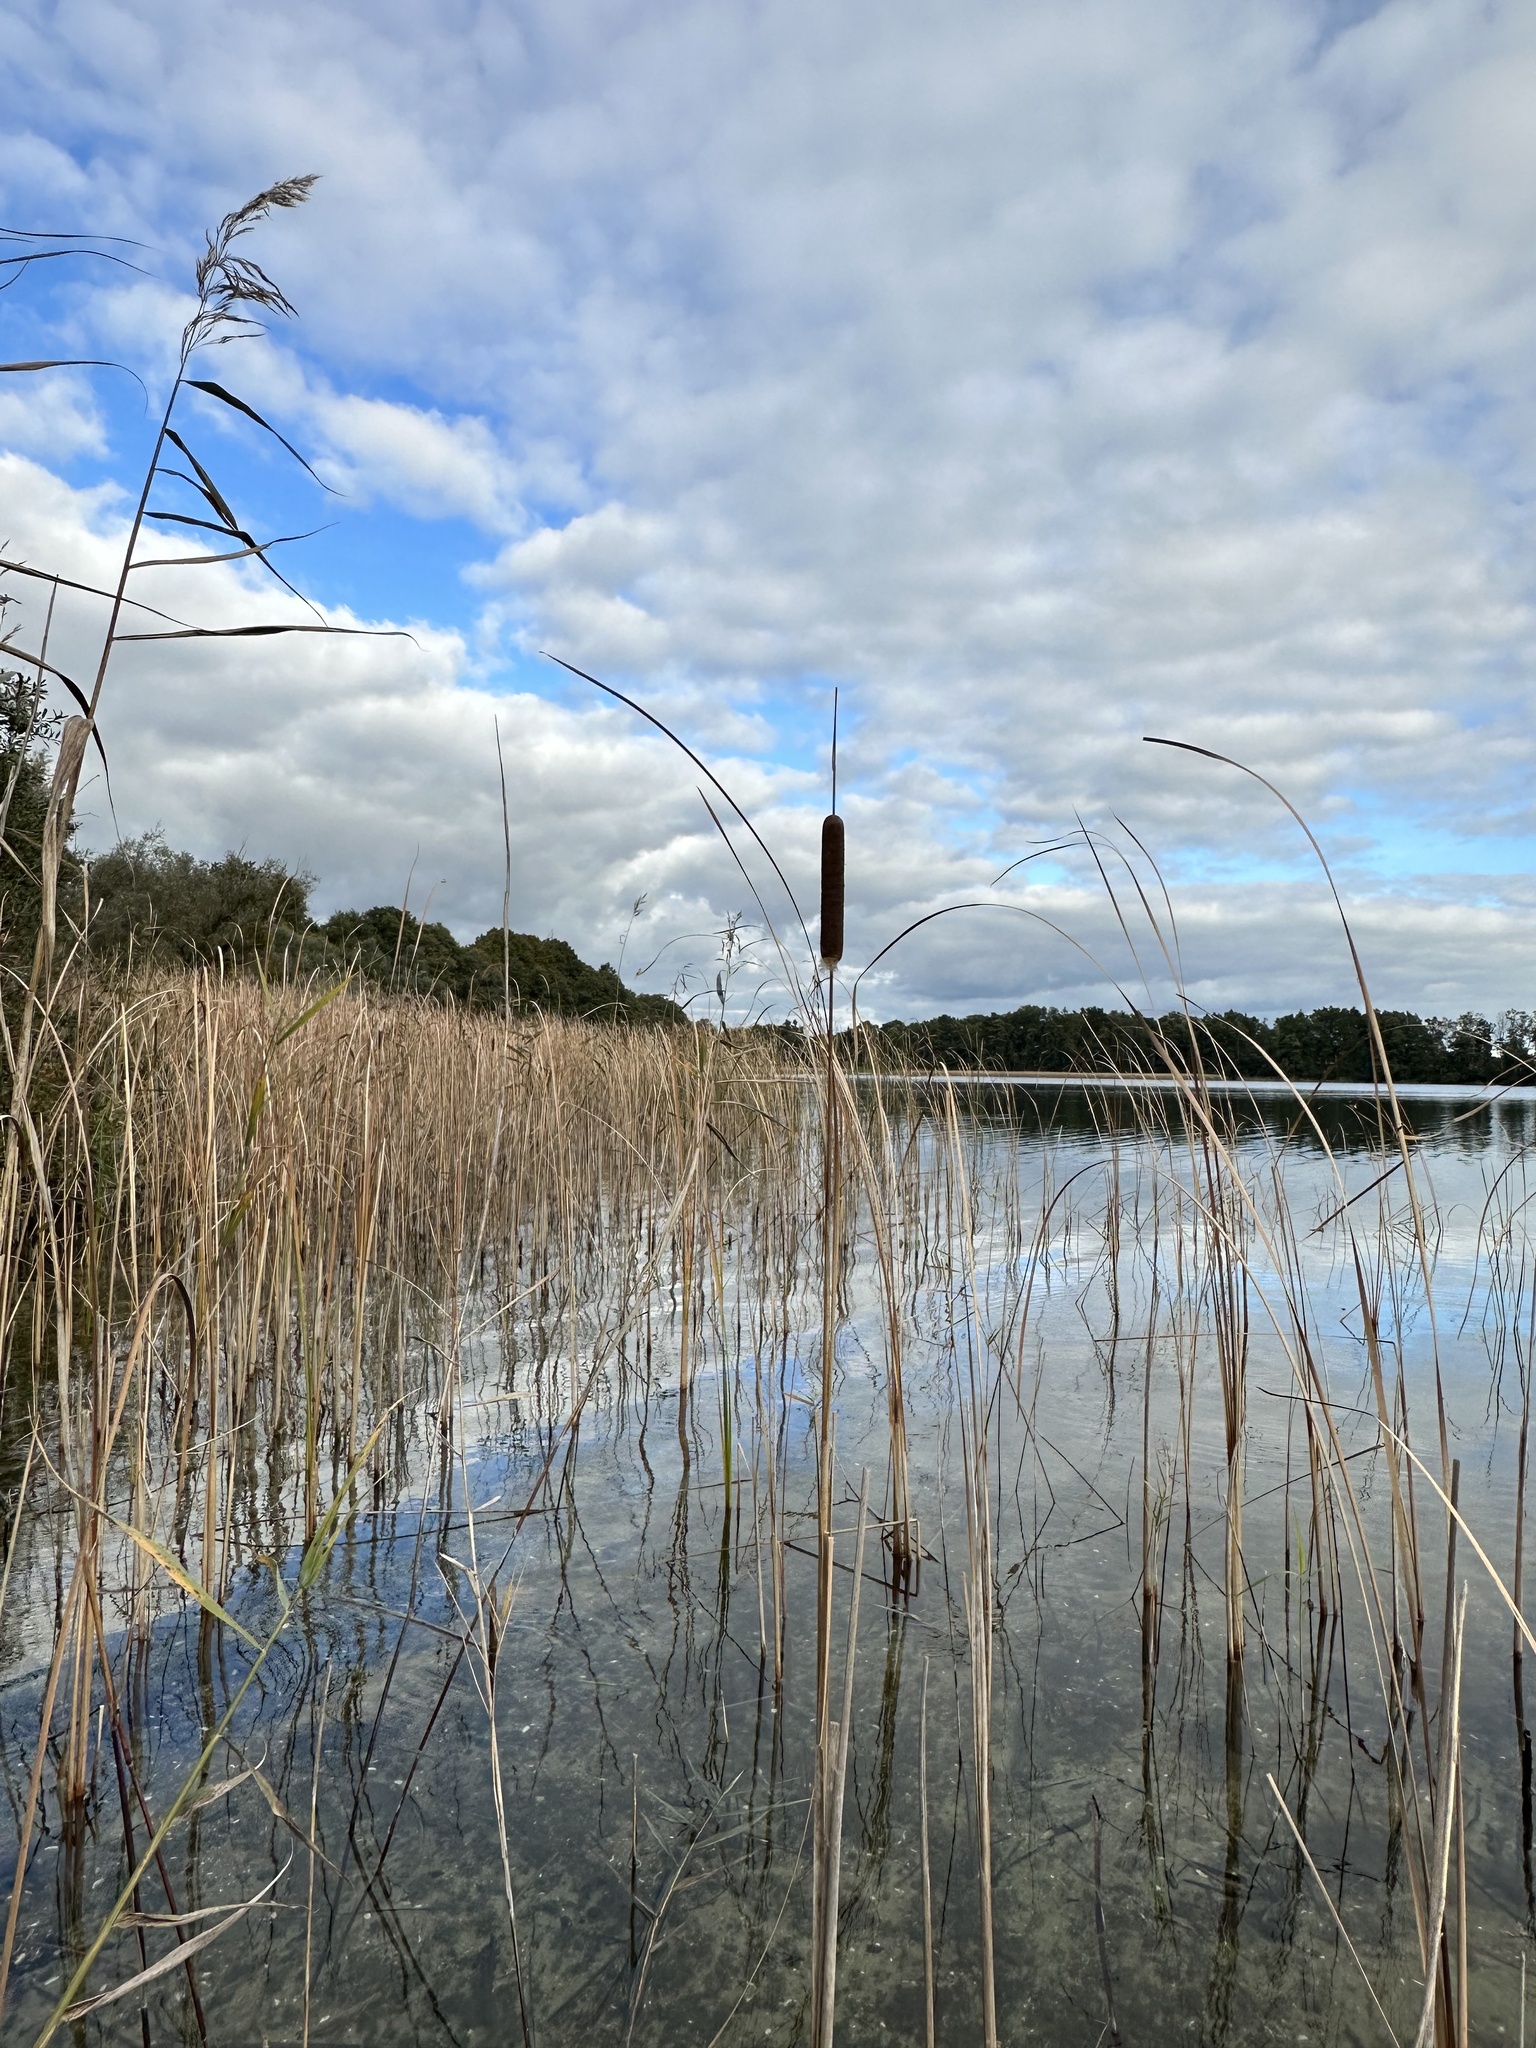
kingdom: Plantae
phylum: Tracheophyta
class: Liliopsida
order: Poales
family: Typhaceae
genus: Typha
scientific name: Typha latifolia
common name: Broadleaf cattail
